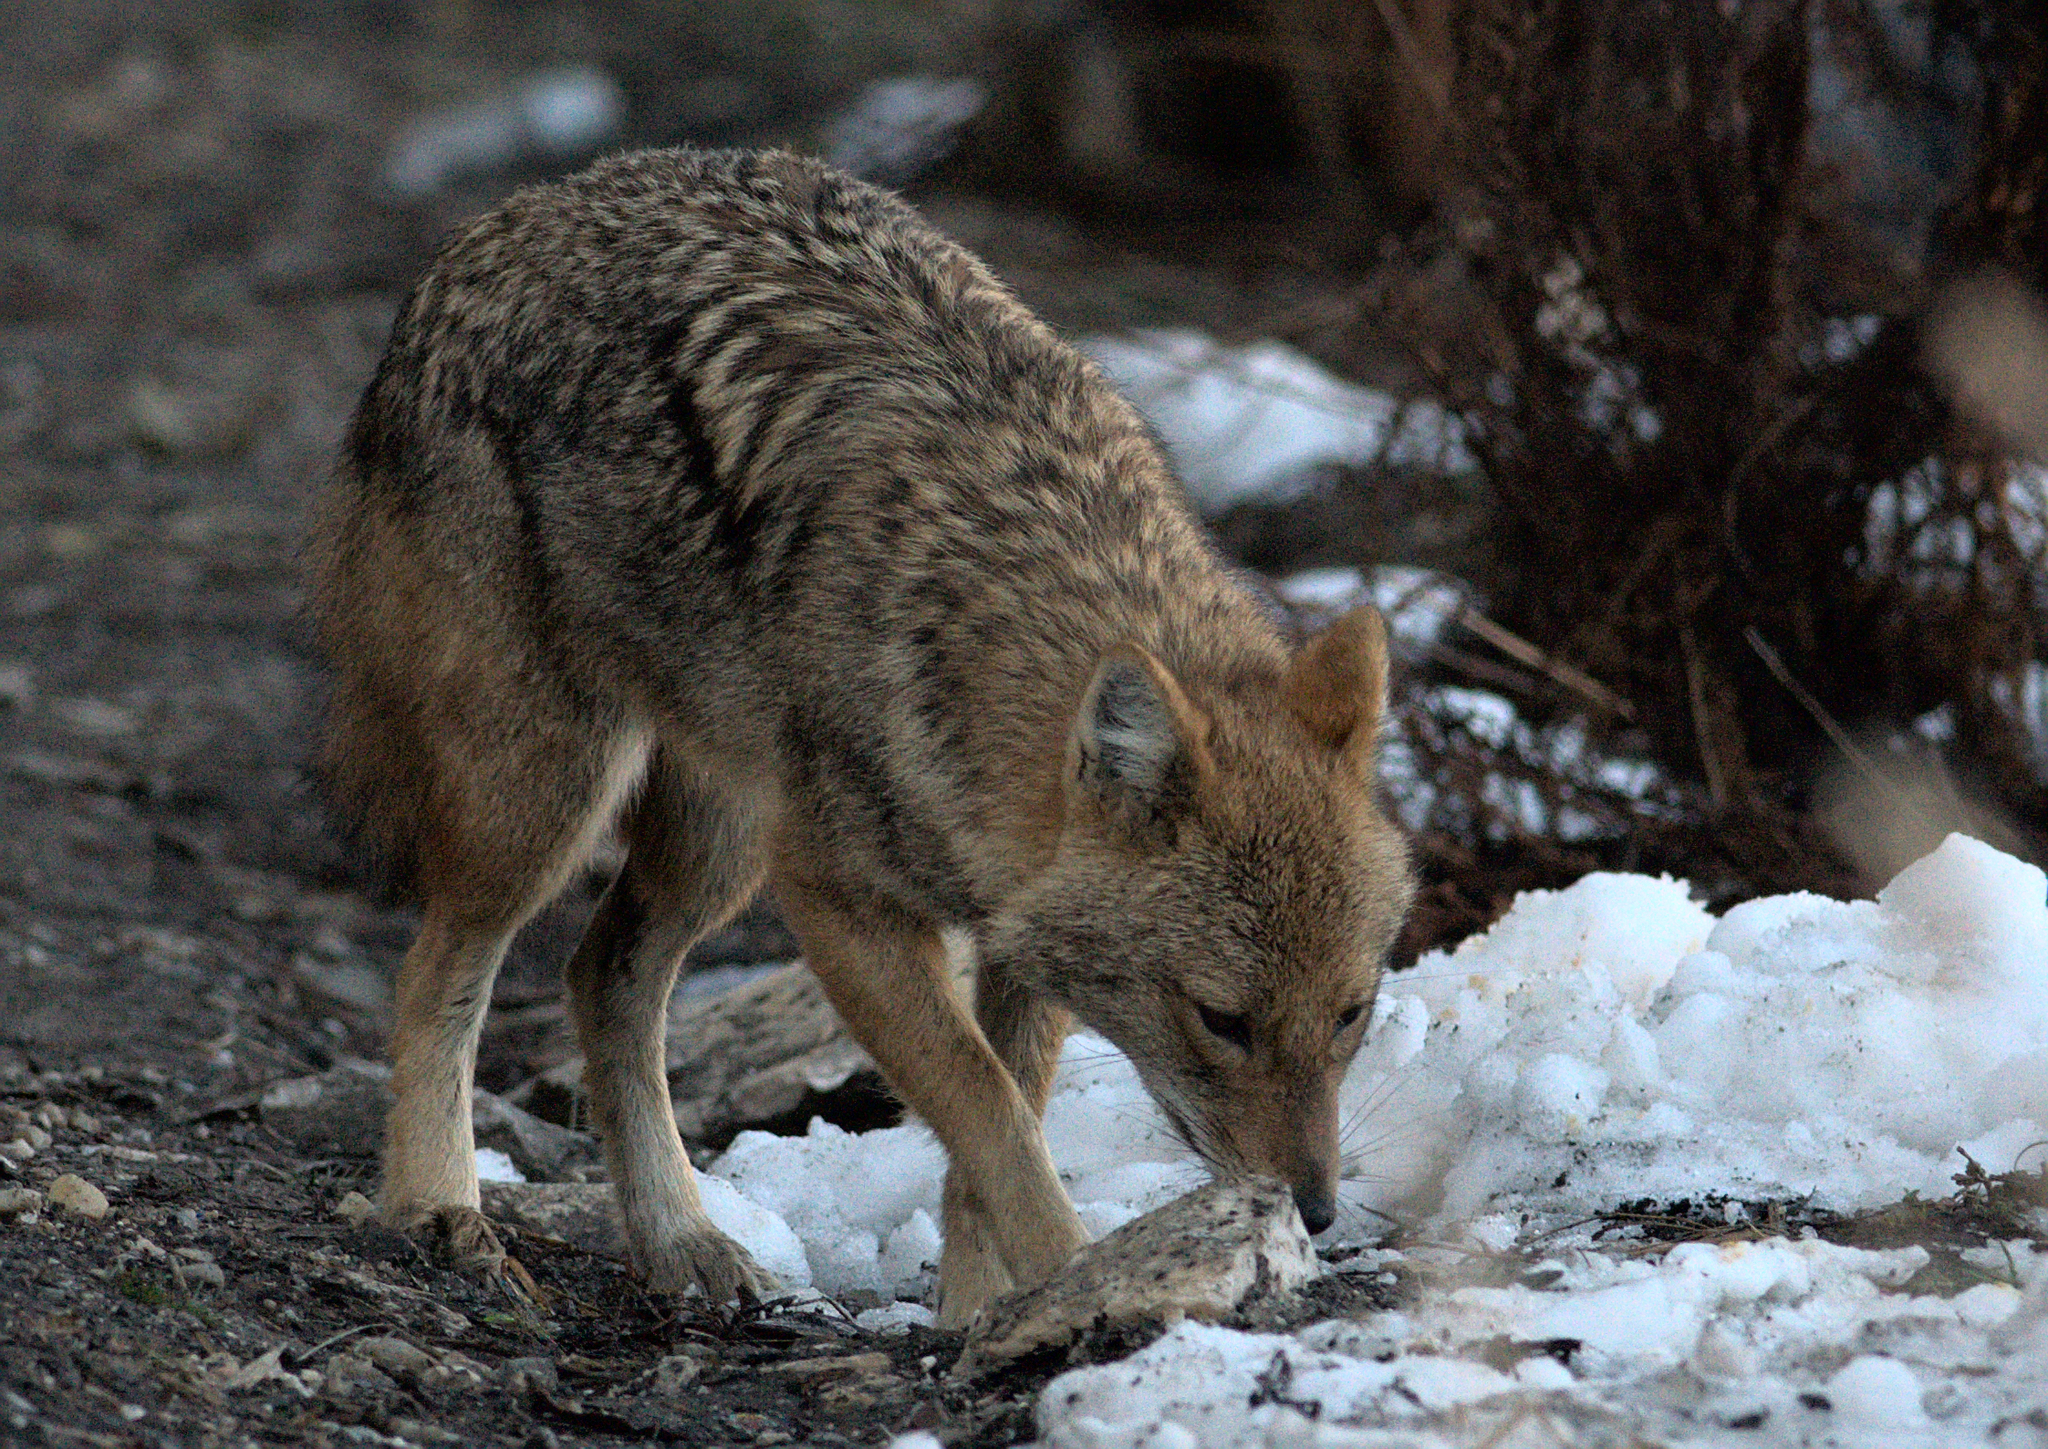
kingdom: Animalia
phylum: Chordata
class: Mammalia
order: Carnivora
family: Canidae
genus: Canis
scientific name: Canis aureus
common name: Golden jackal
